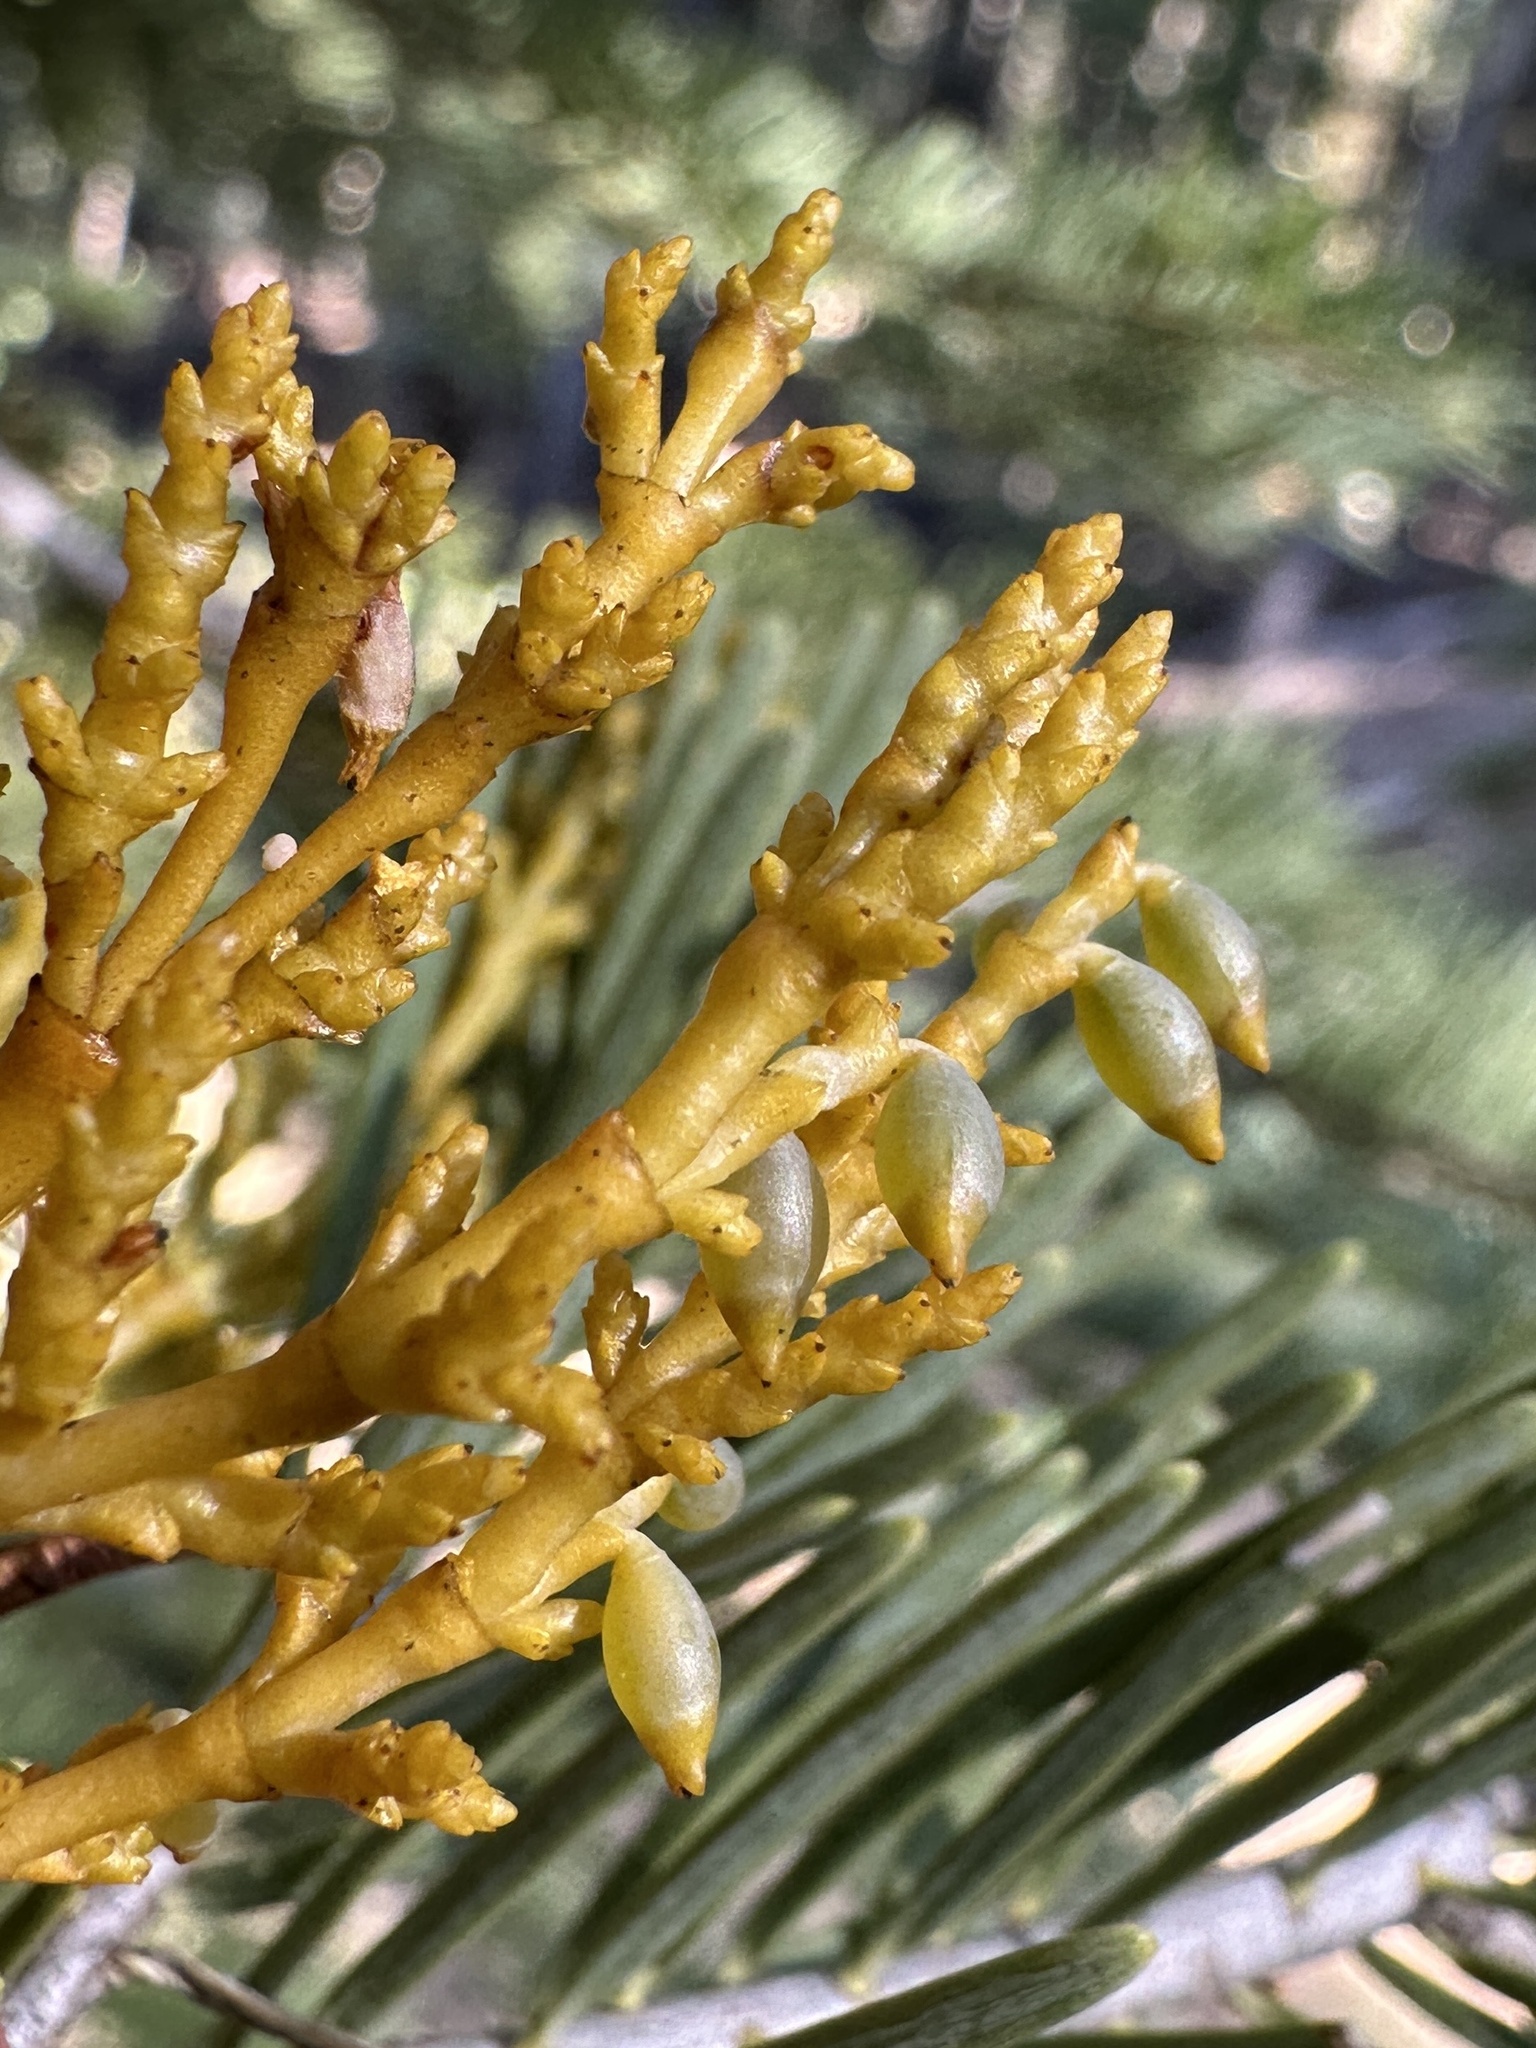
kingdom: Plantae
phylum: Tracheophyta
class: Magnoliopsida
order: Santalales
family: Viscaceae
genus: Arceuthobium
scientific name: Arceuthobium abietinum
